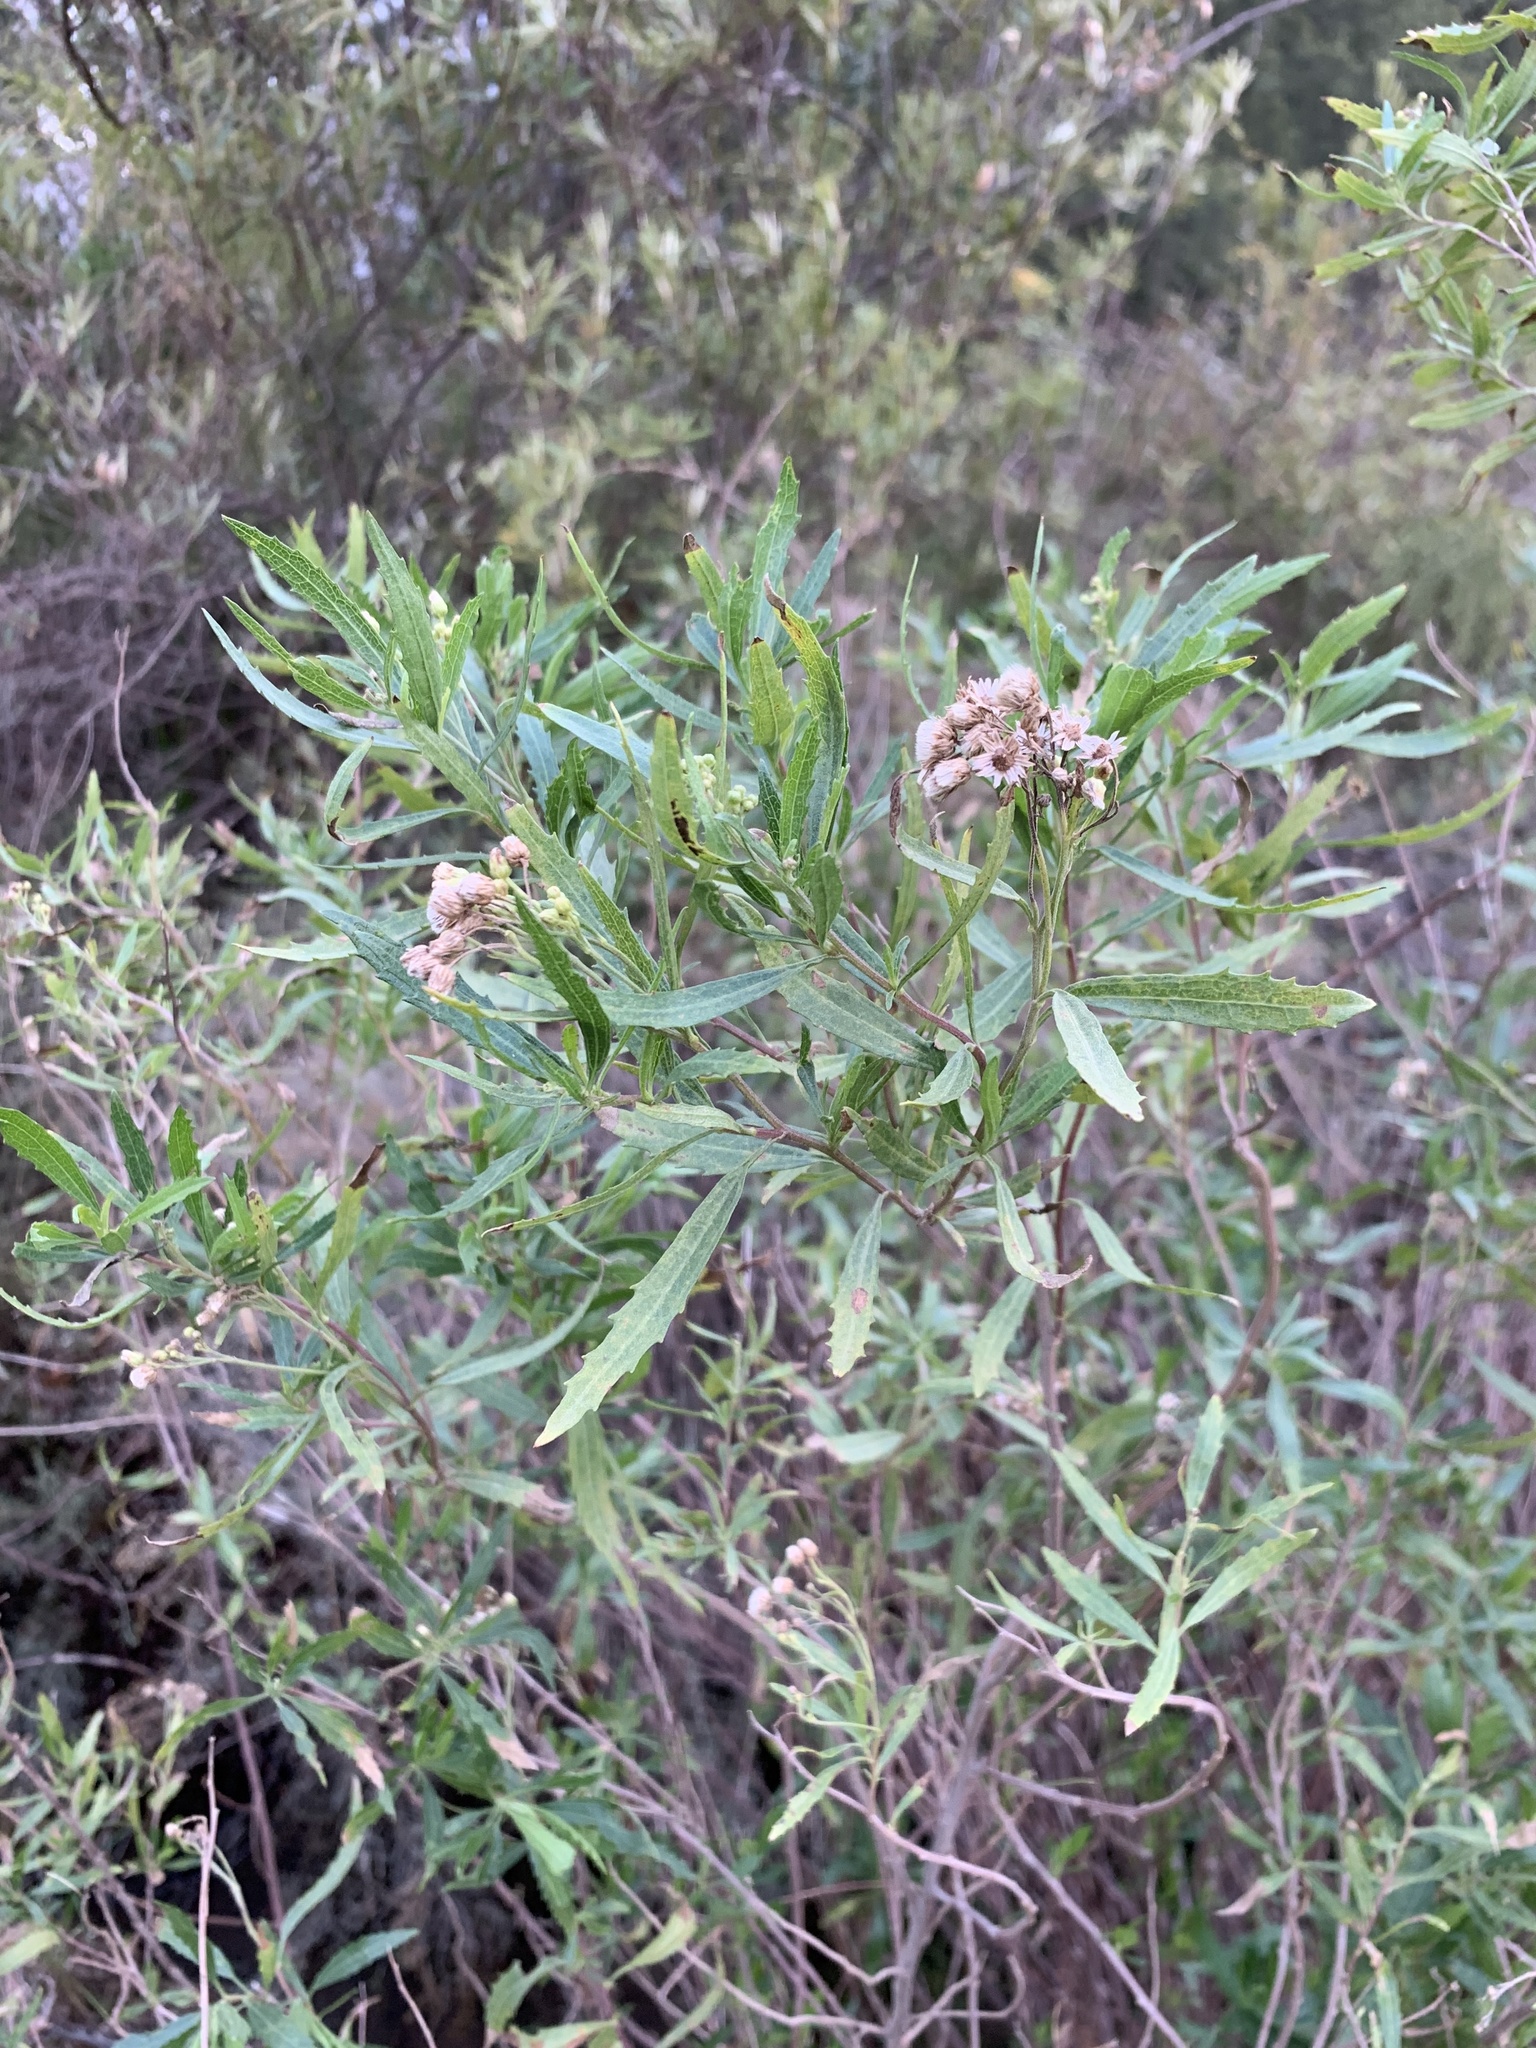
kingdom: Plantae
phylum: Tracheophyta
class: Magnoliopsida
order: Asterales
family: Asteraceae
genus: Nidorella
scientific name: Nidorella ivifolia
